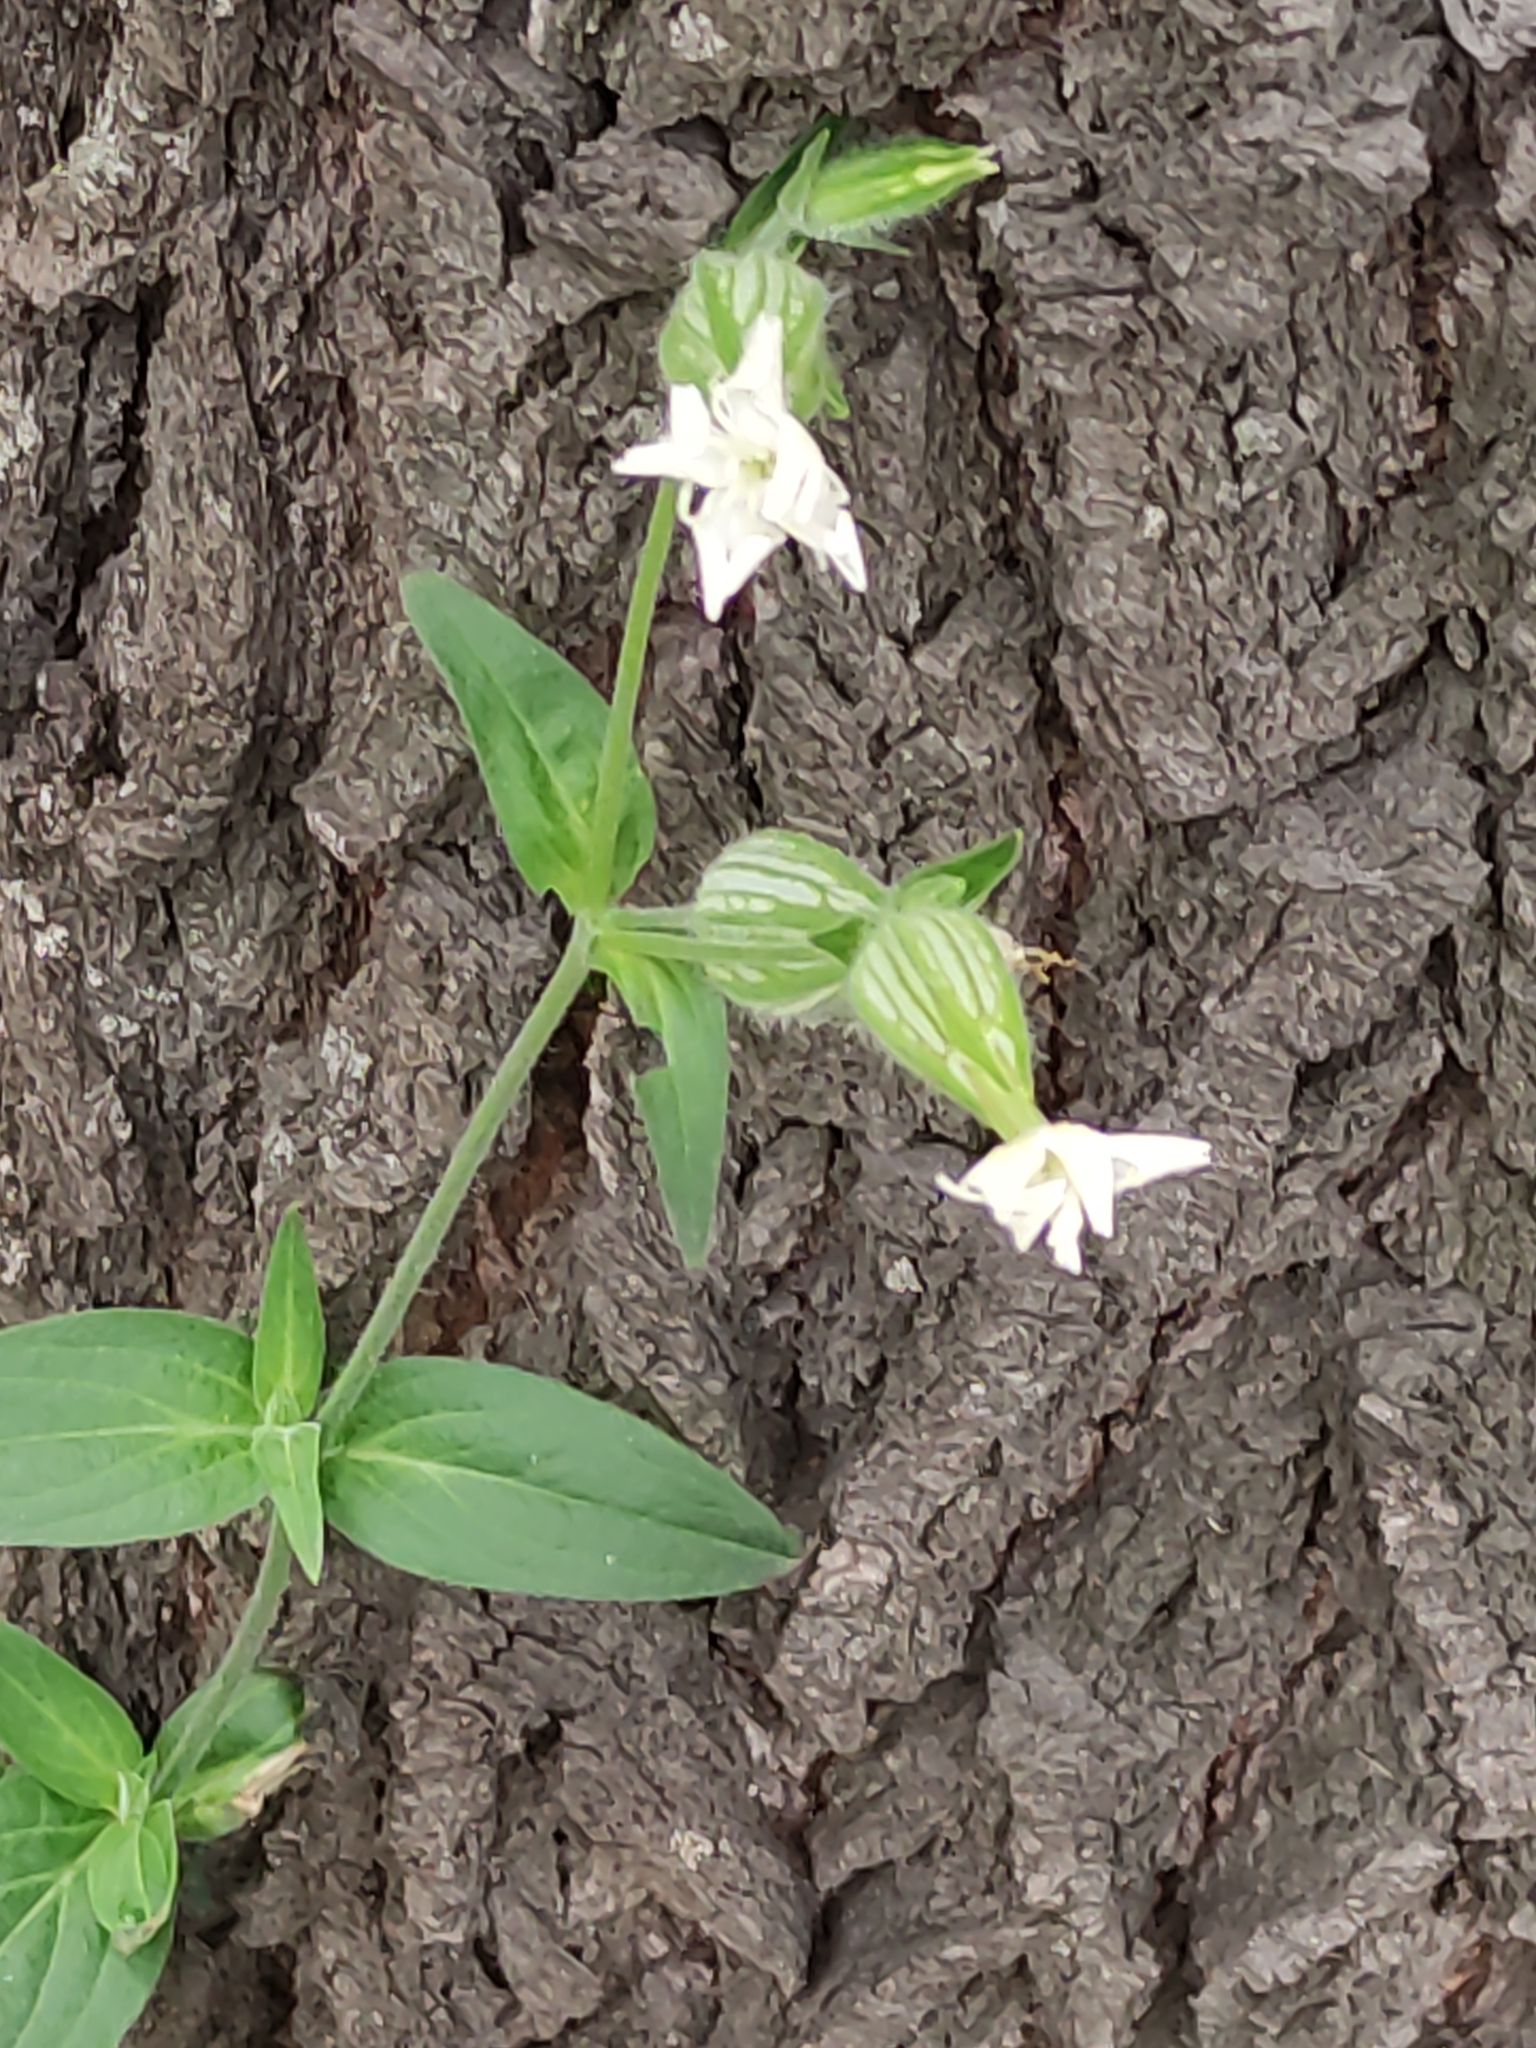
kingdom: Plantae
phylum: Tracheophyta
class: Magnoliopsida
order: Caryophyllales
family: Caryophyllaceae
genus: Silene
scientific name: Silene latifolia
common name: White campion
